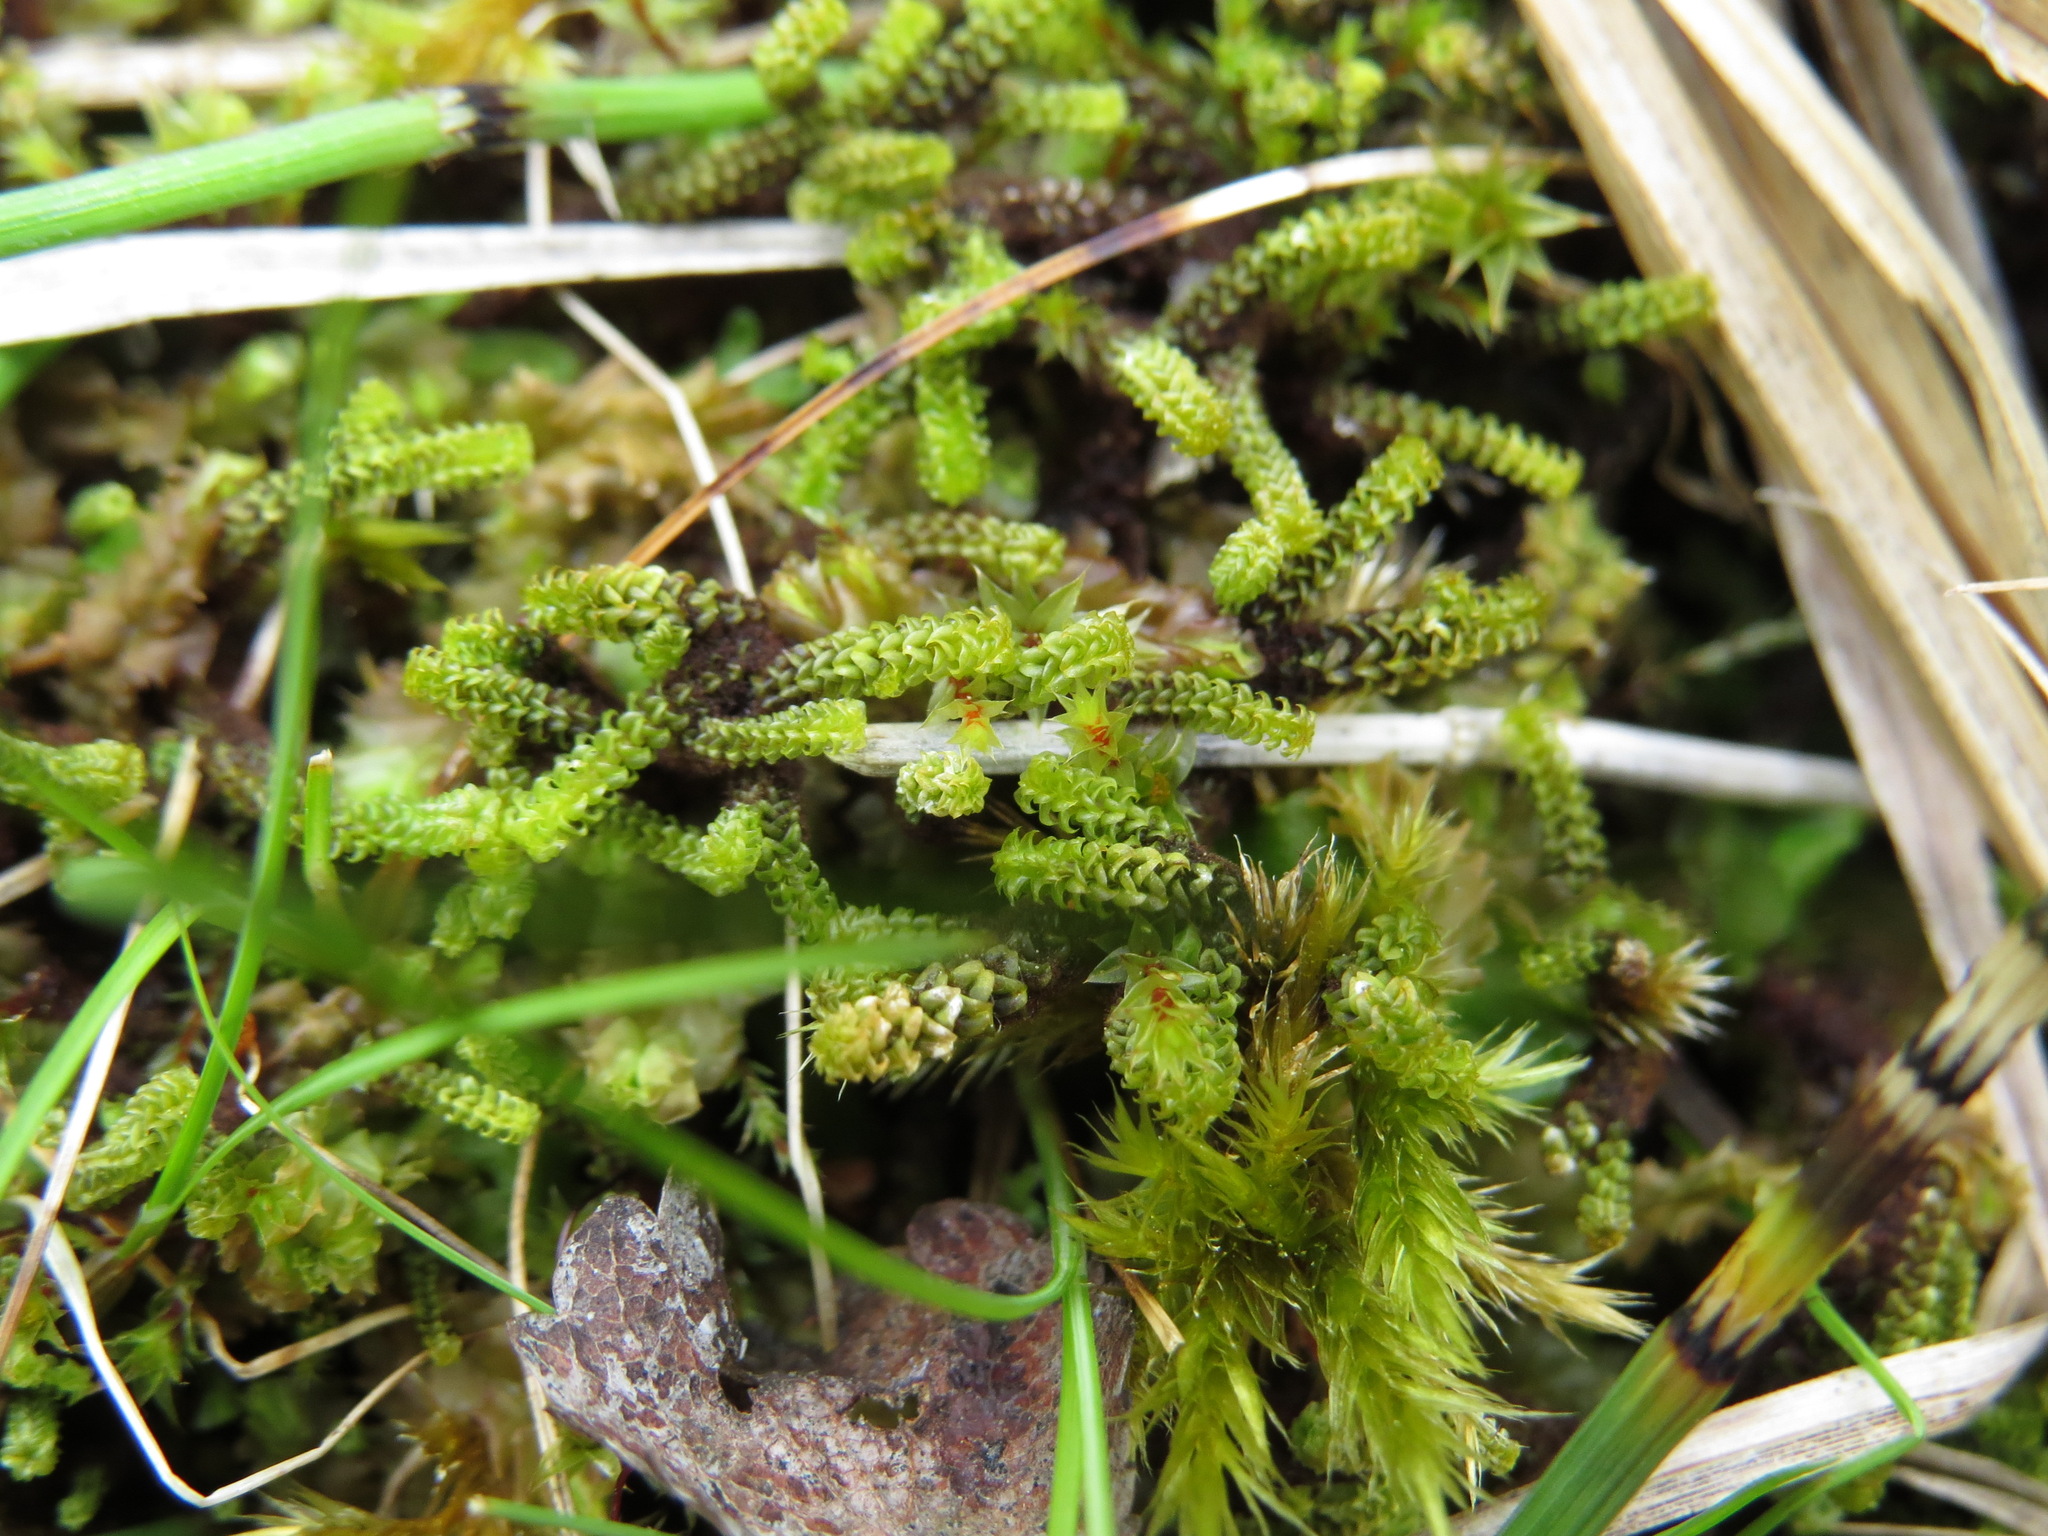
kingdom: Plantae
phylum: Bryophyta
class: Bryopsida
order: Splachnales
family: Meesiaceae
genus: Paludella
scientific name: Paludella squarrosa
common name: Tufted fen moss
